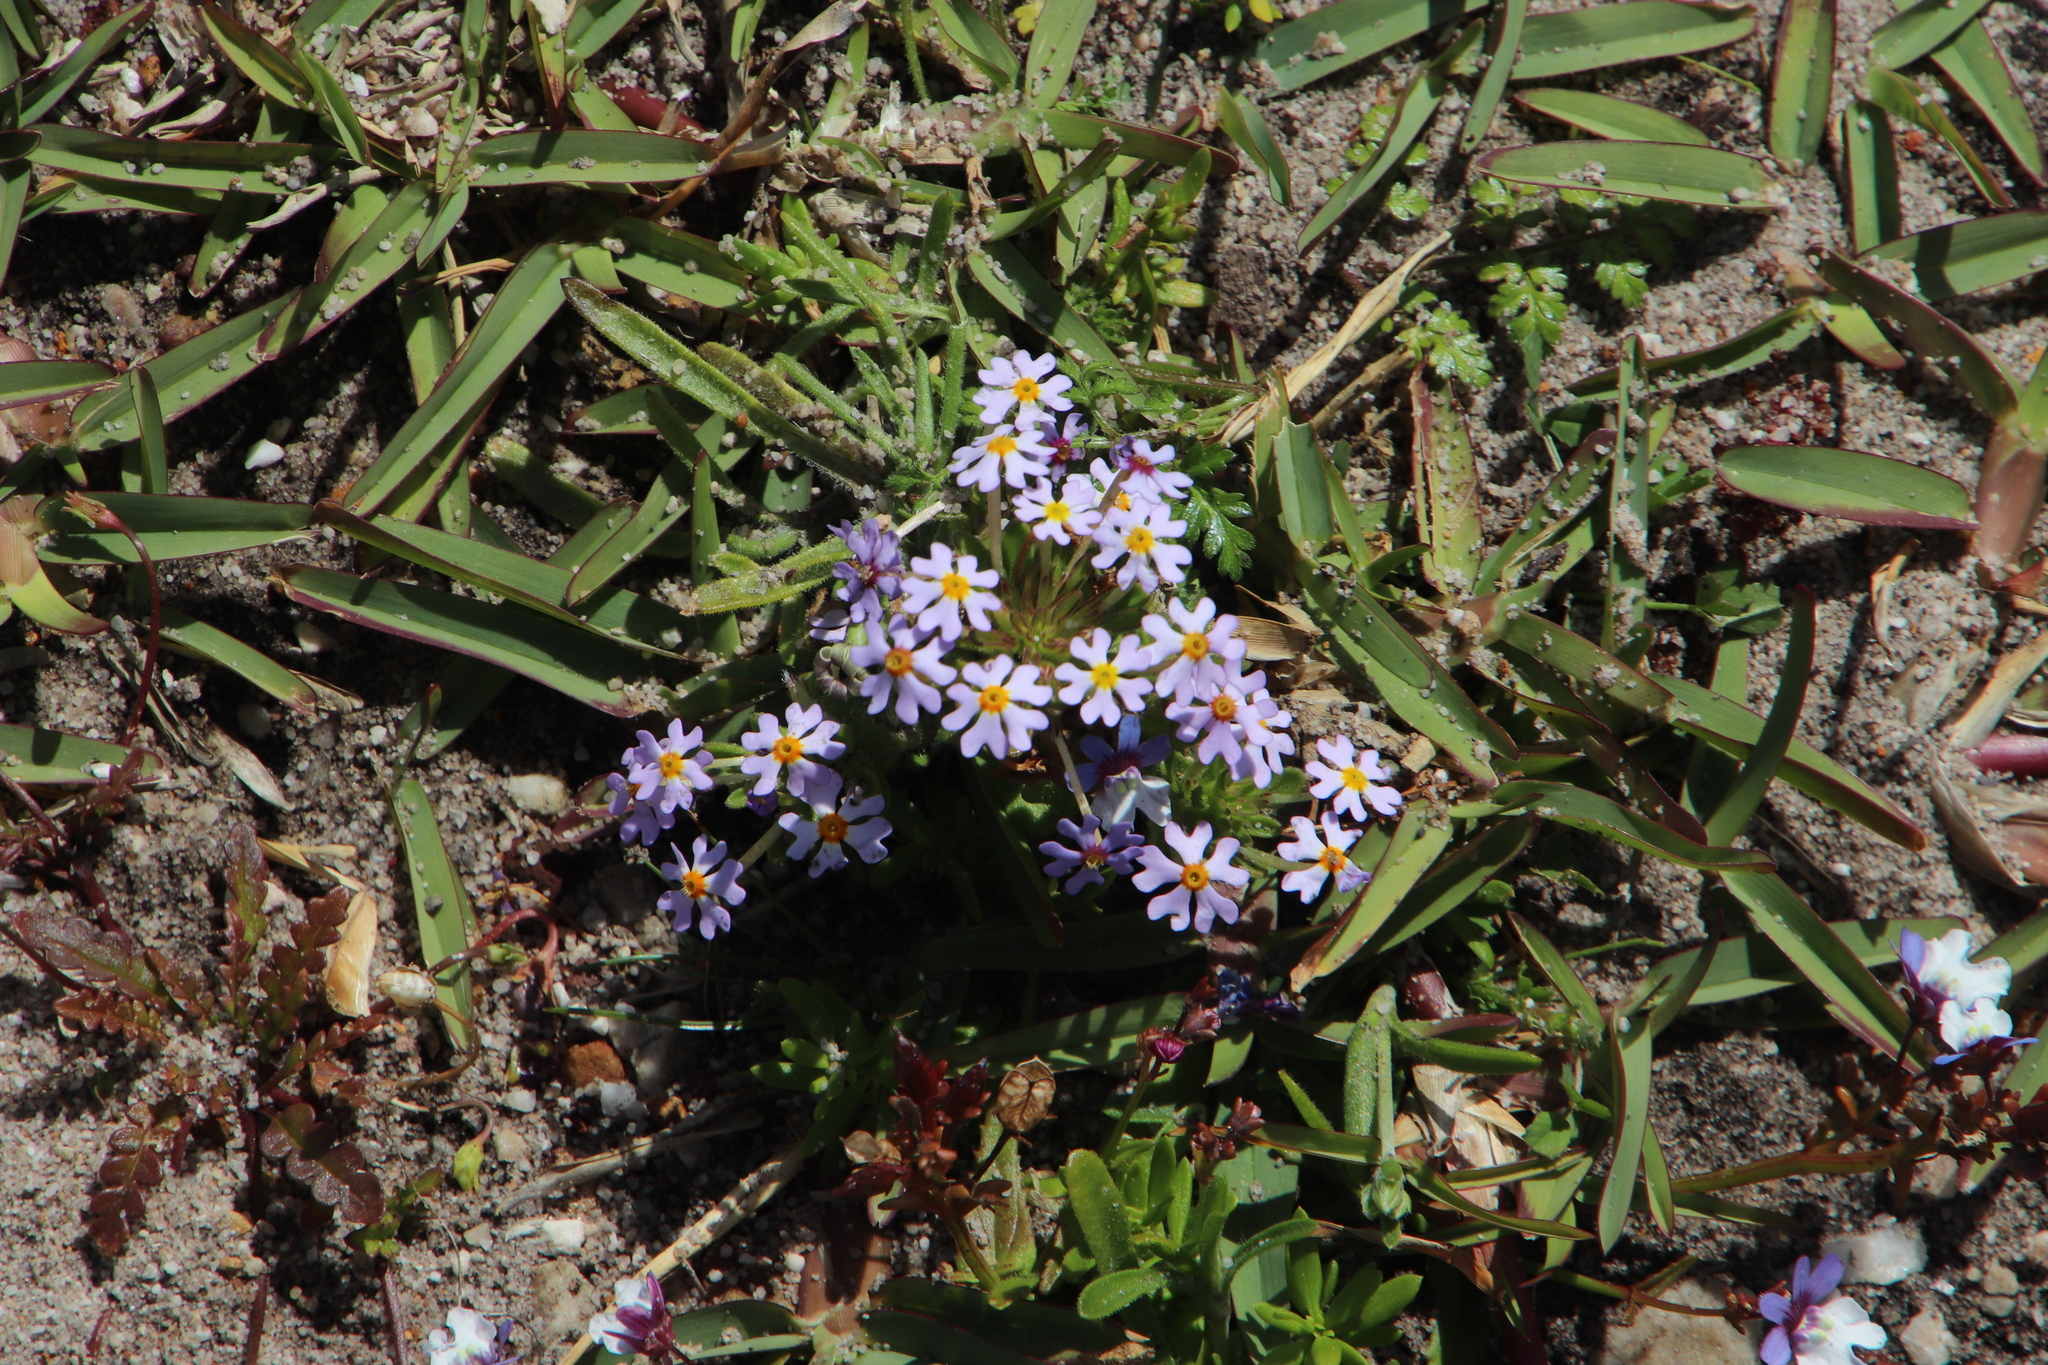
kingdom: Plantae
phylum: Tracheophyta
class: Magnoliopsida
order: Lamiales
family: Scrophulariaceae
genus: Zaluzianskya
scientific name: Zaluzianskya villosa
